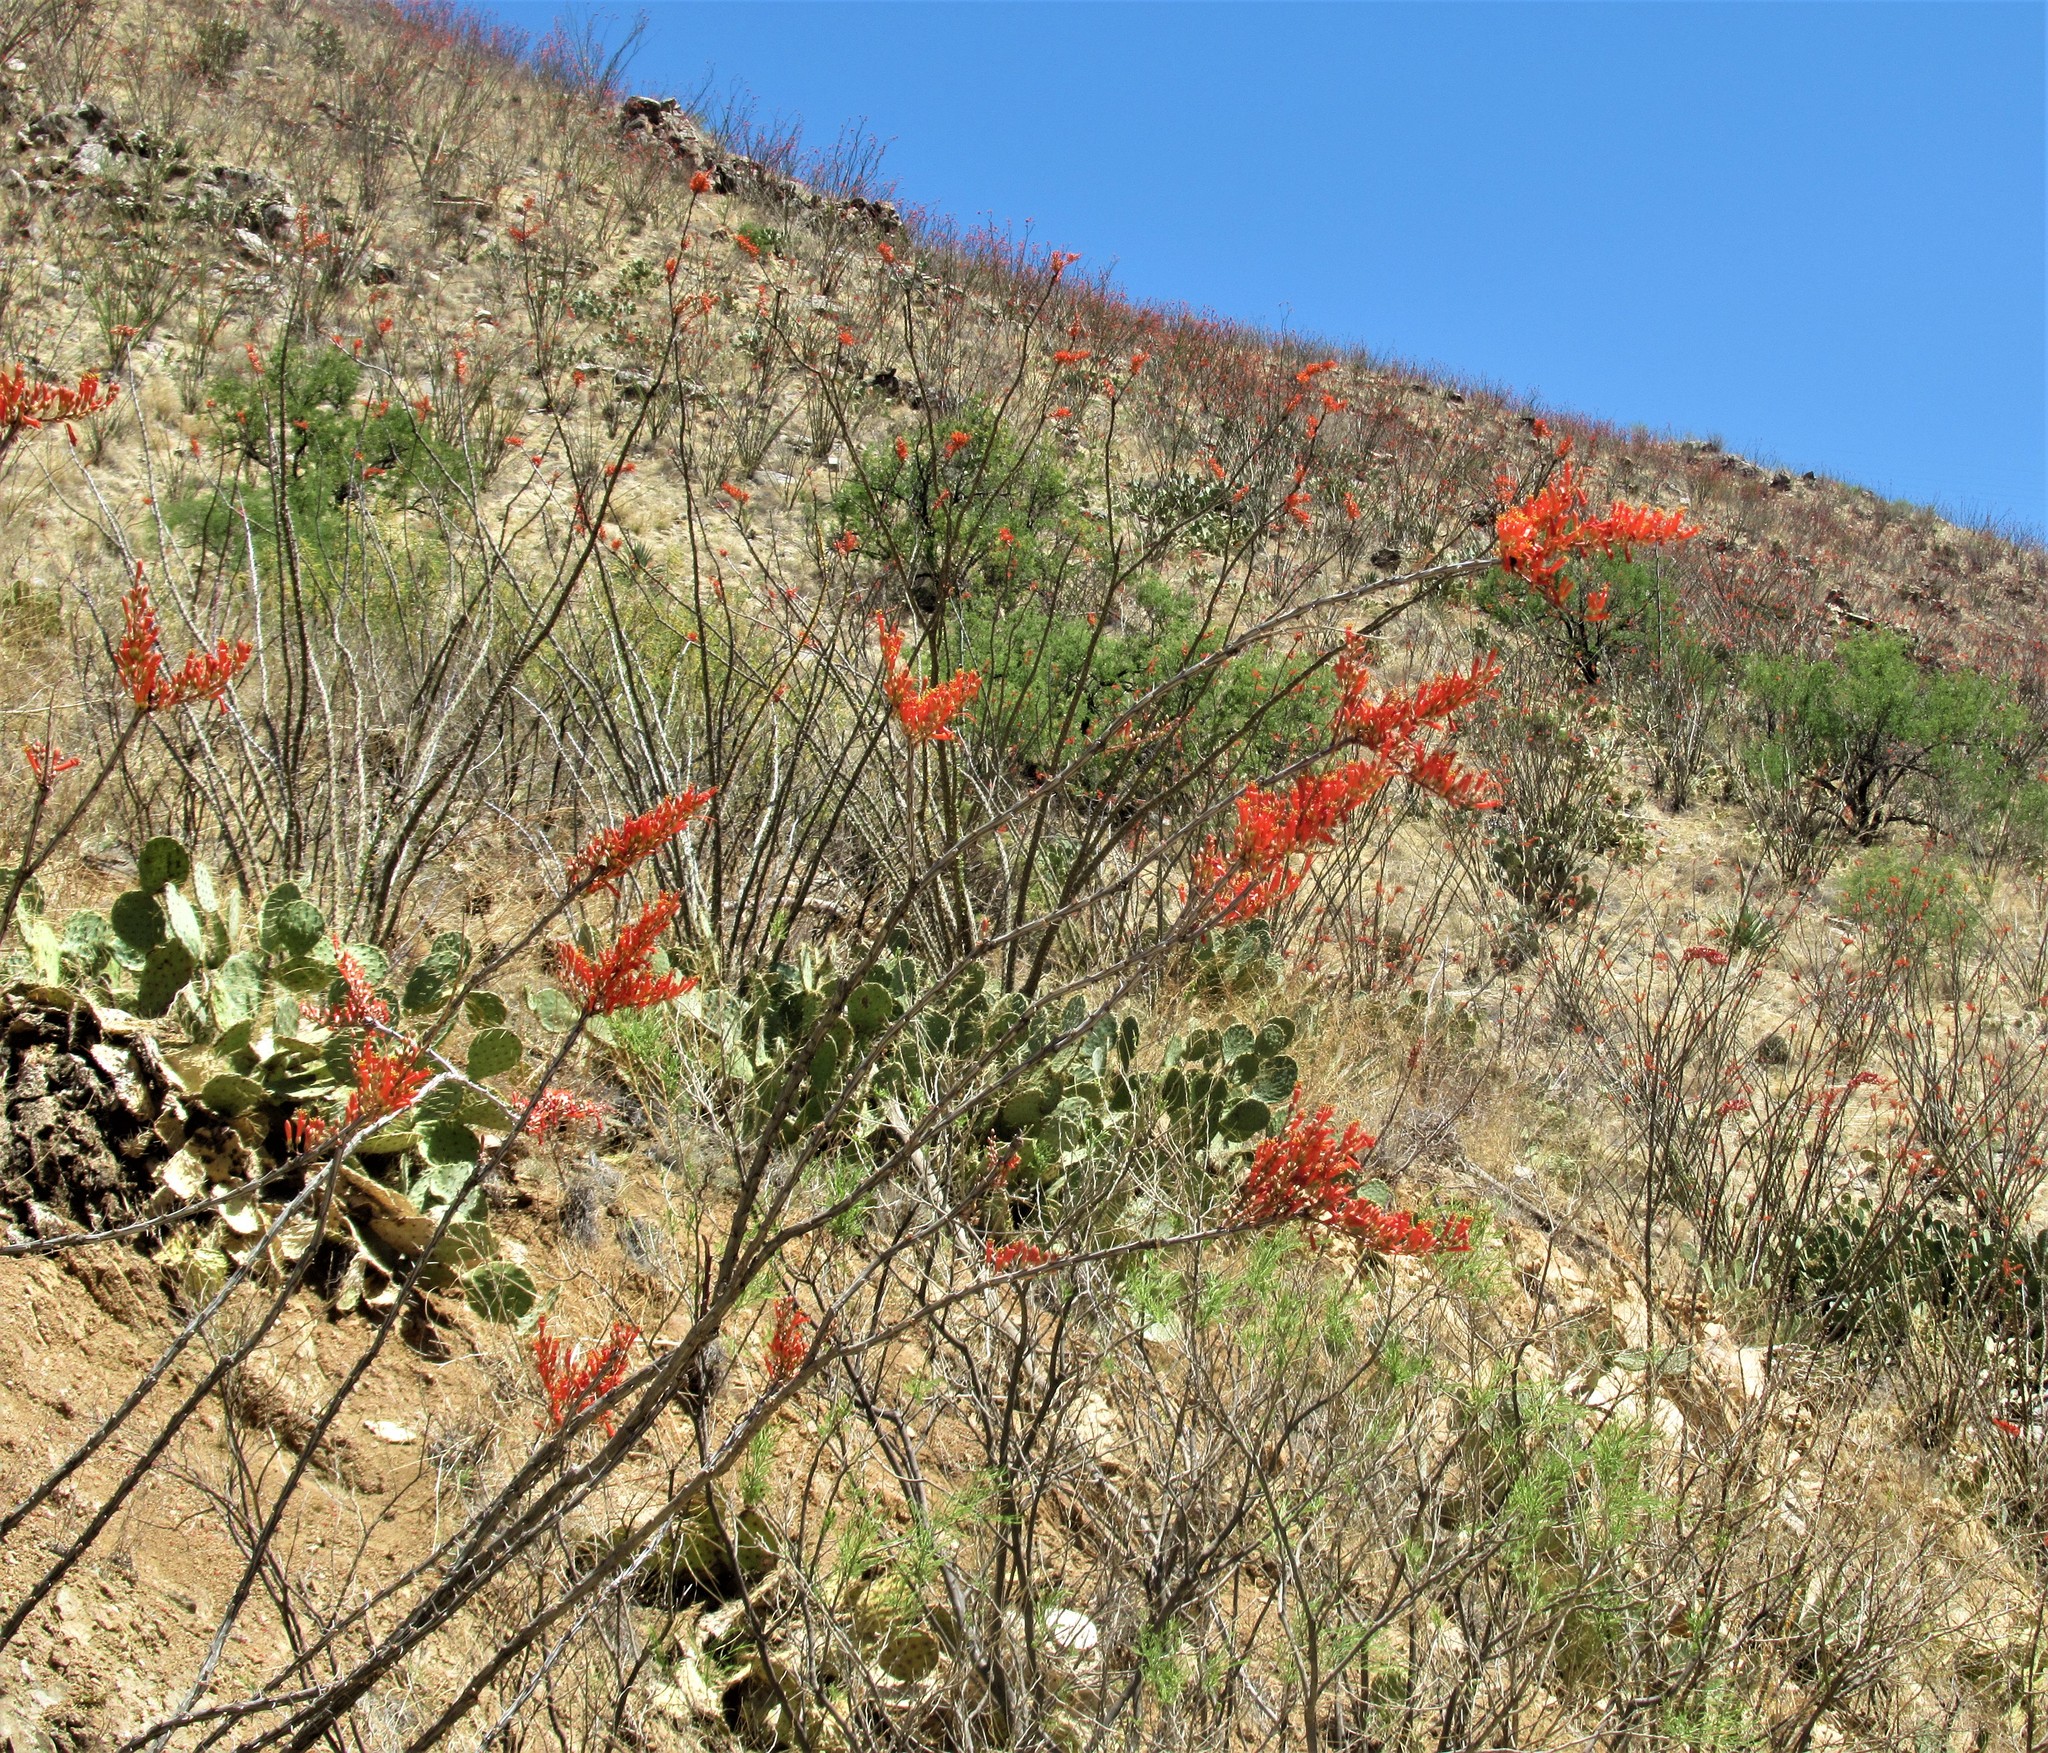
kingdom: Plantae
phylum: Tracheophyta
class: Magnoliopsida
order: Ericales
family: Fouquieriaceae
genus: Fouquieria
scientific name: Fouquieria splendens
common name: Vine-cactus
